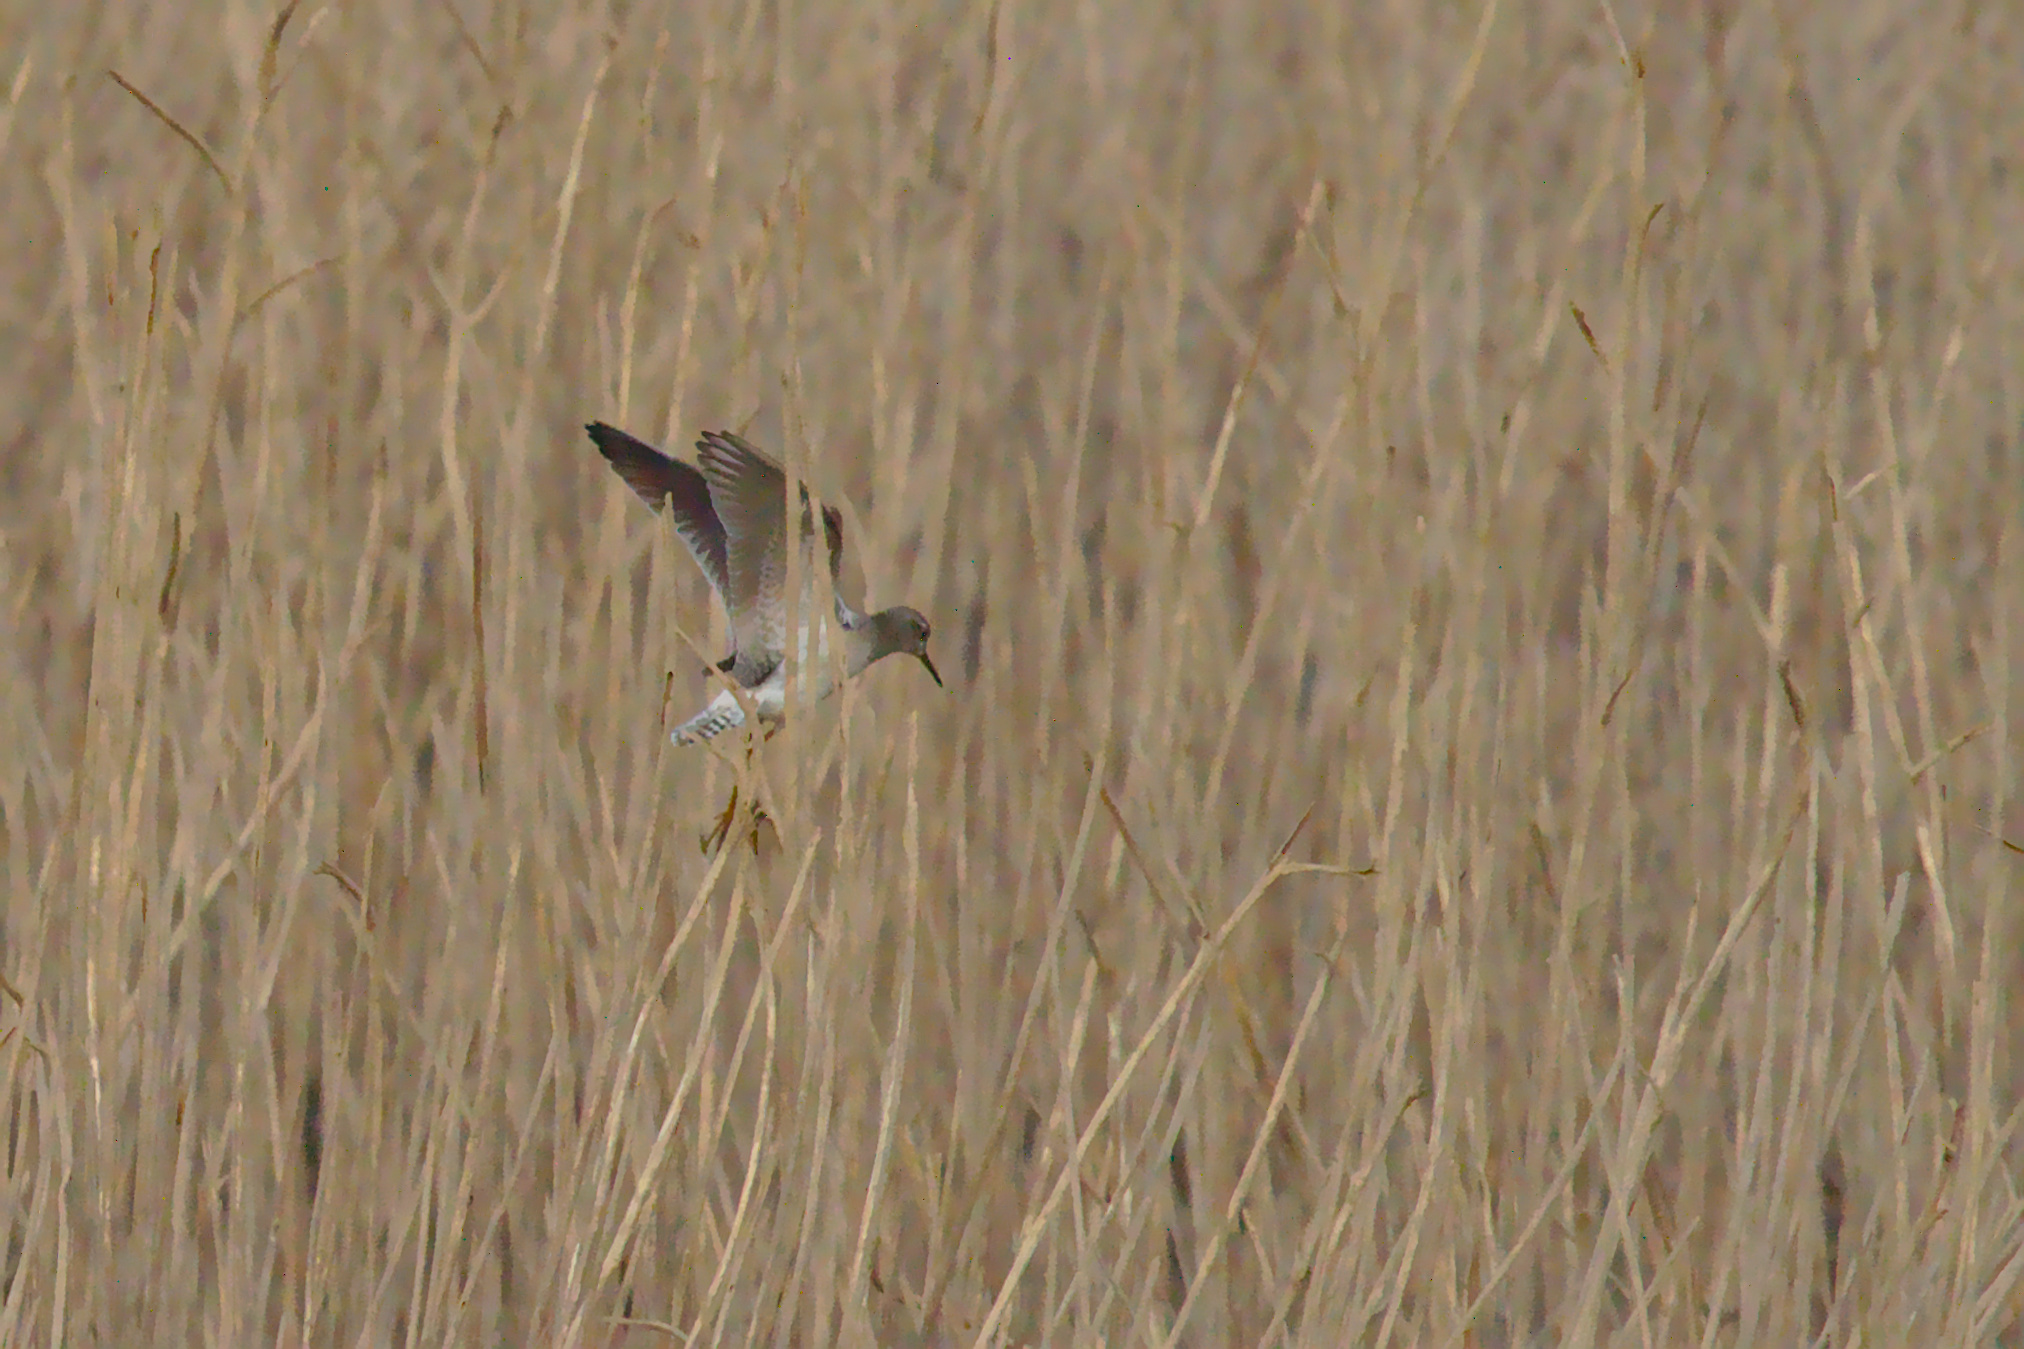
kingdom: Animalia
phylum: Chordata
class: Aves
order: Charadriiformes
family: Scolopacidae
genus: Tringa
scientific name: Tringa glareola
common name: Wood sandpiper
